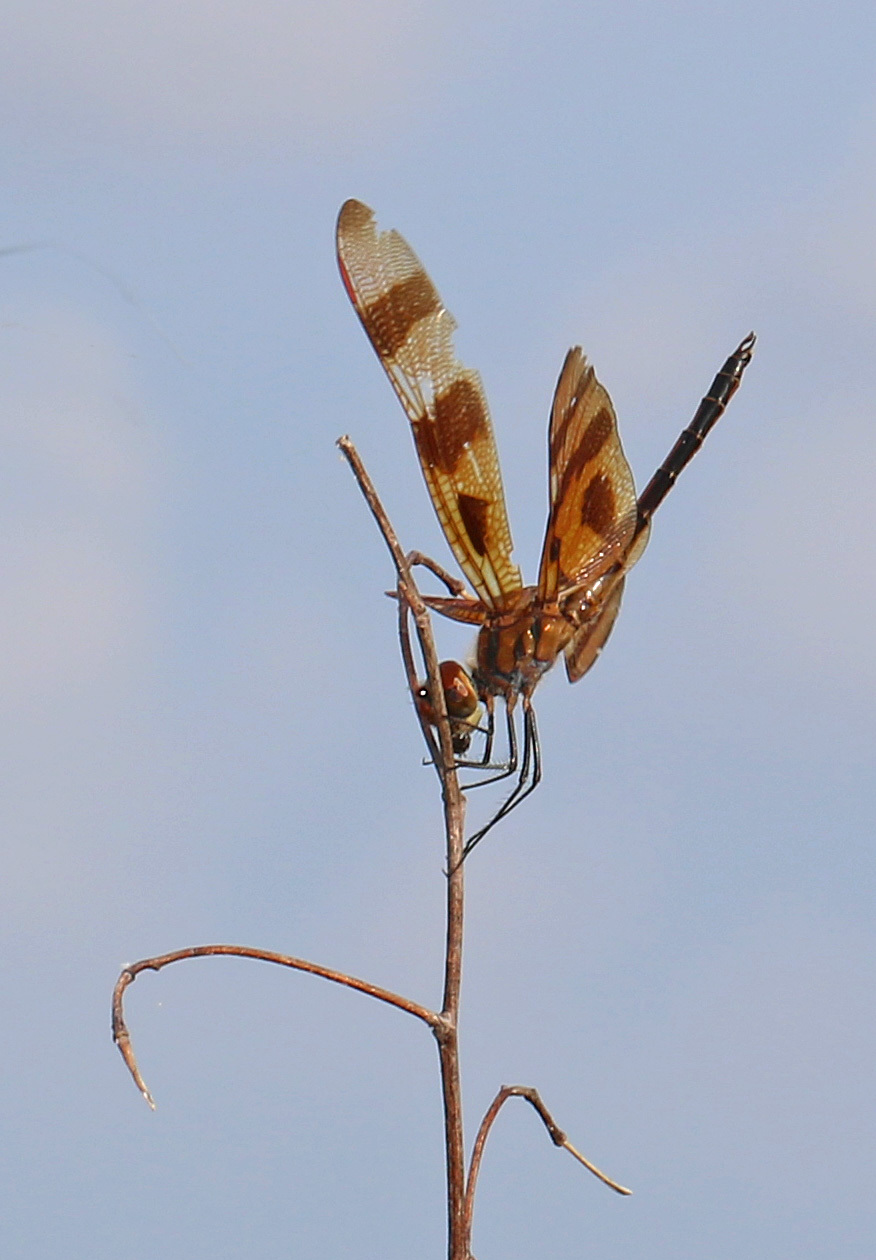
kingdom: Animalia
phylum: Arthropoda
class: Insecta
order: Odonata
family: Libellulidae
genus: Celithemis
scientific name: Celithemis eponina
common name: Halloween pennant
